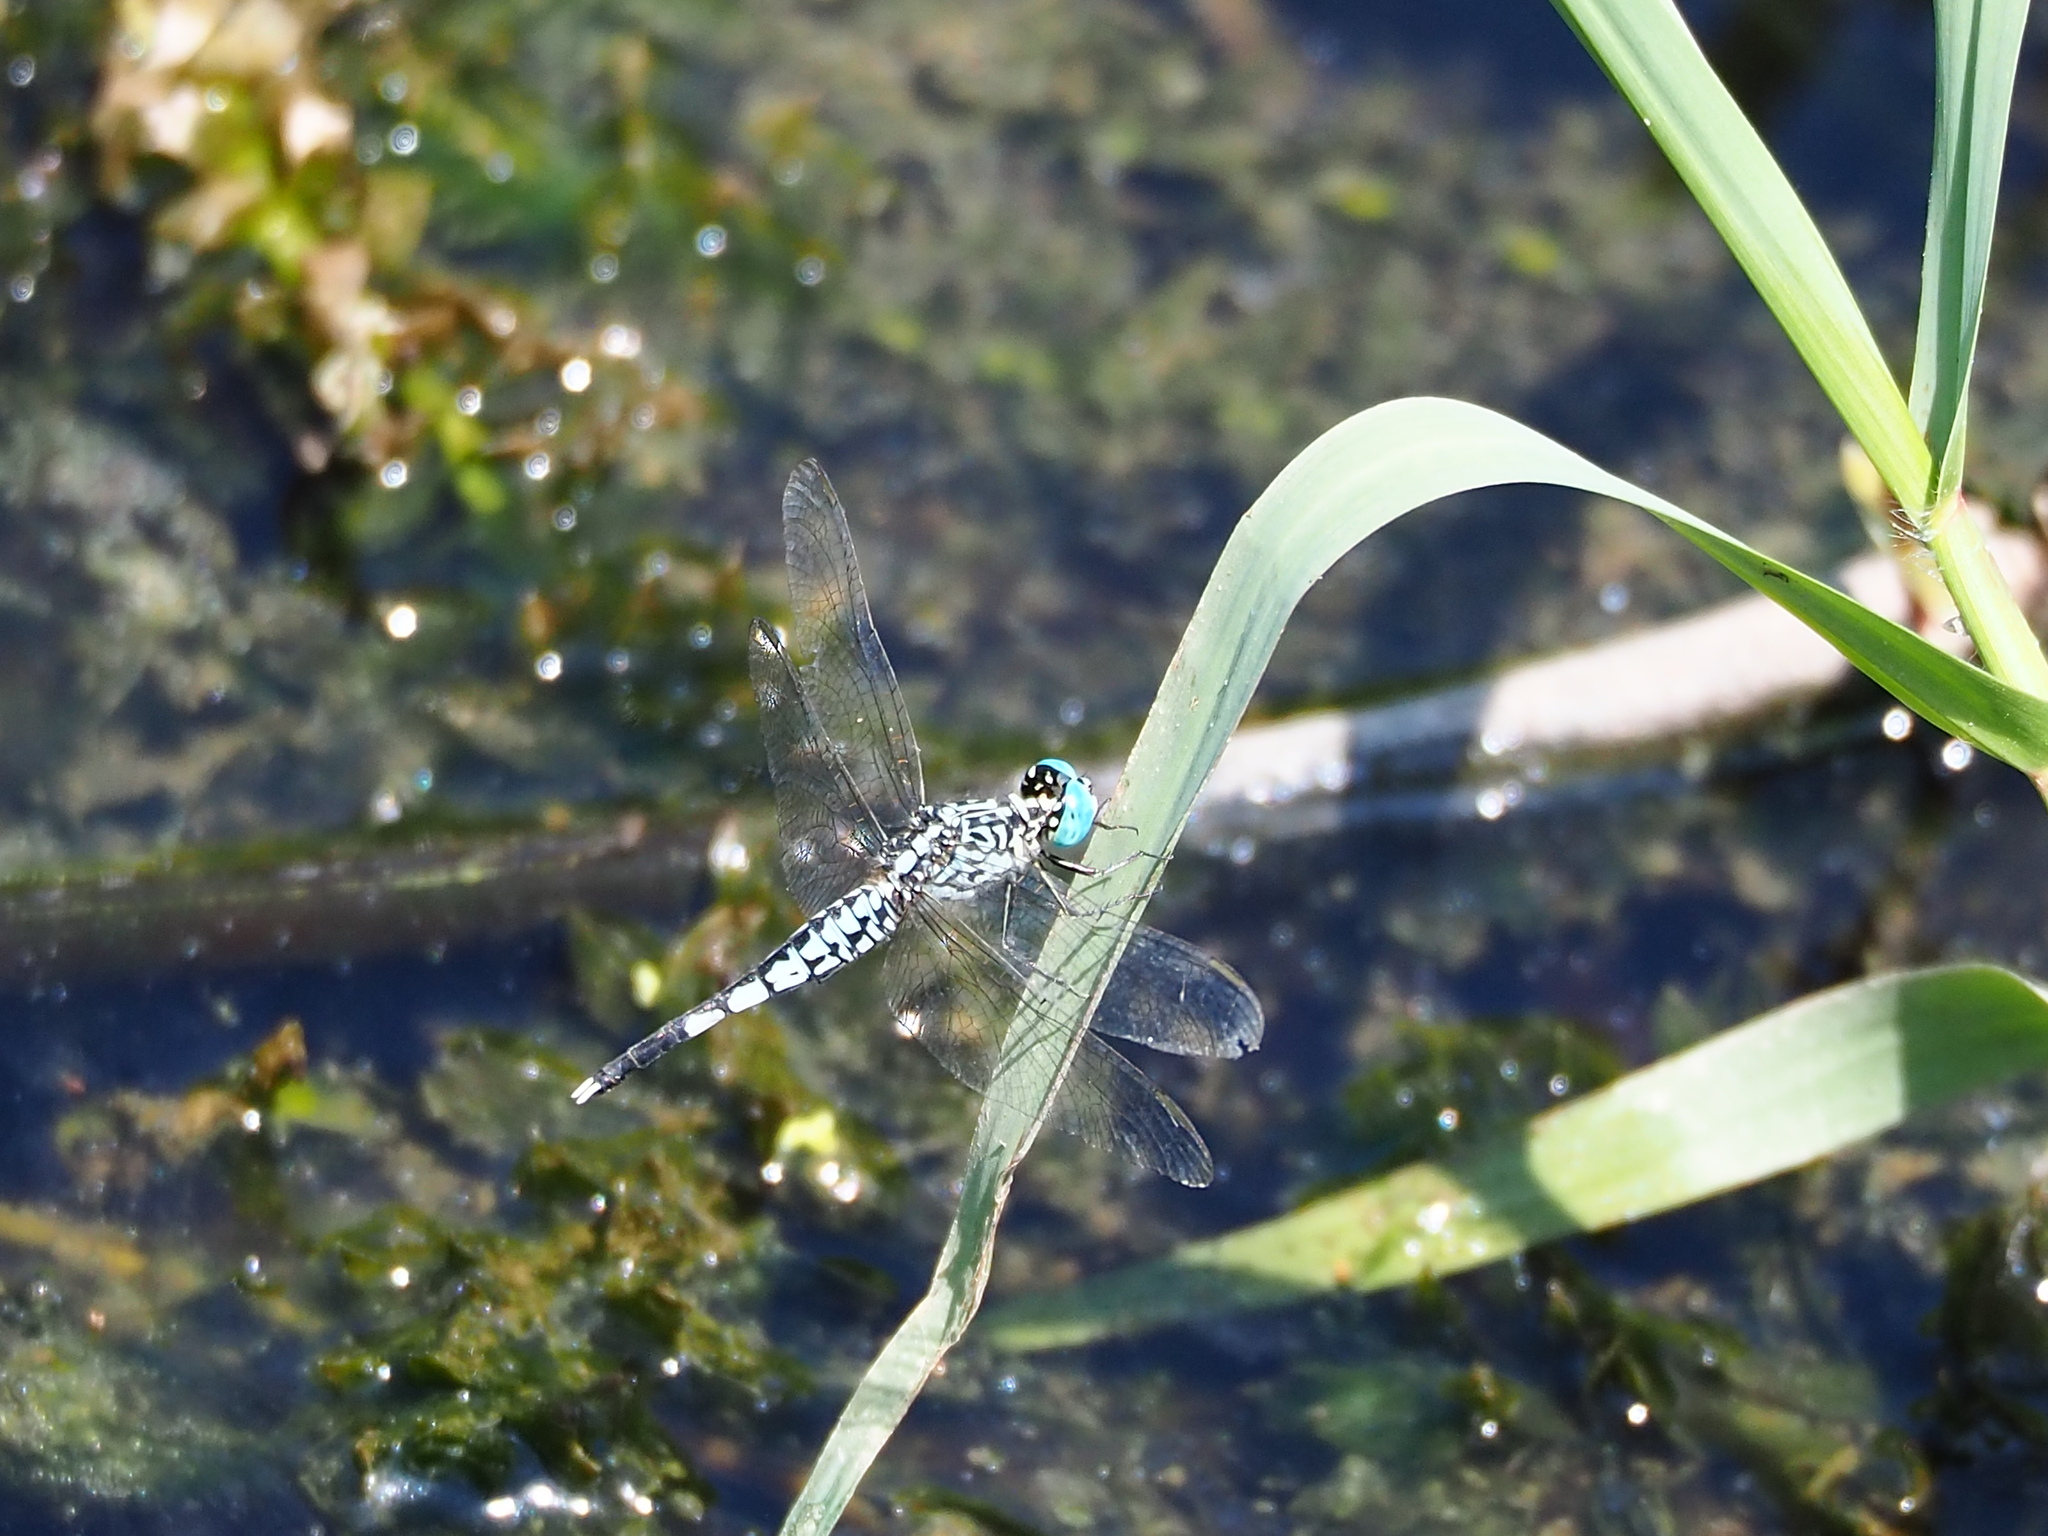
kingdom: Animalia
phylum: Arthropoda
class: Insecta
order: Odonata
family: Libellulidae
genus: Acisoma
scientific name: Acisoma panorpoides
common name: Asian pintail
